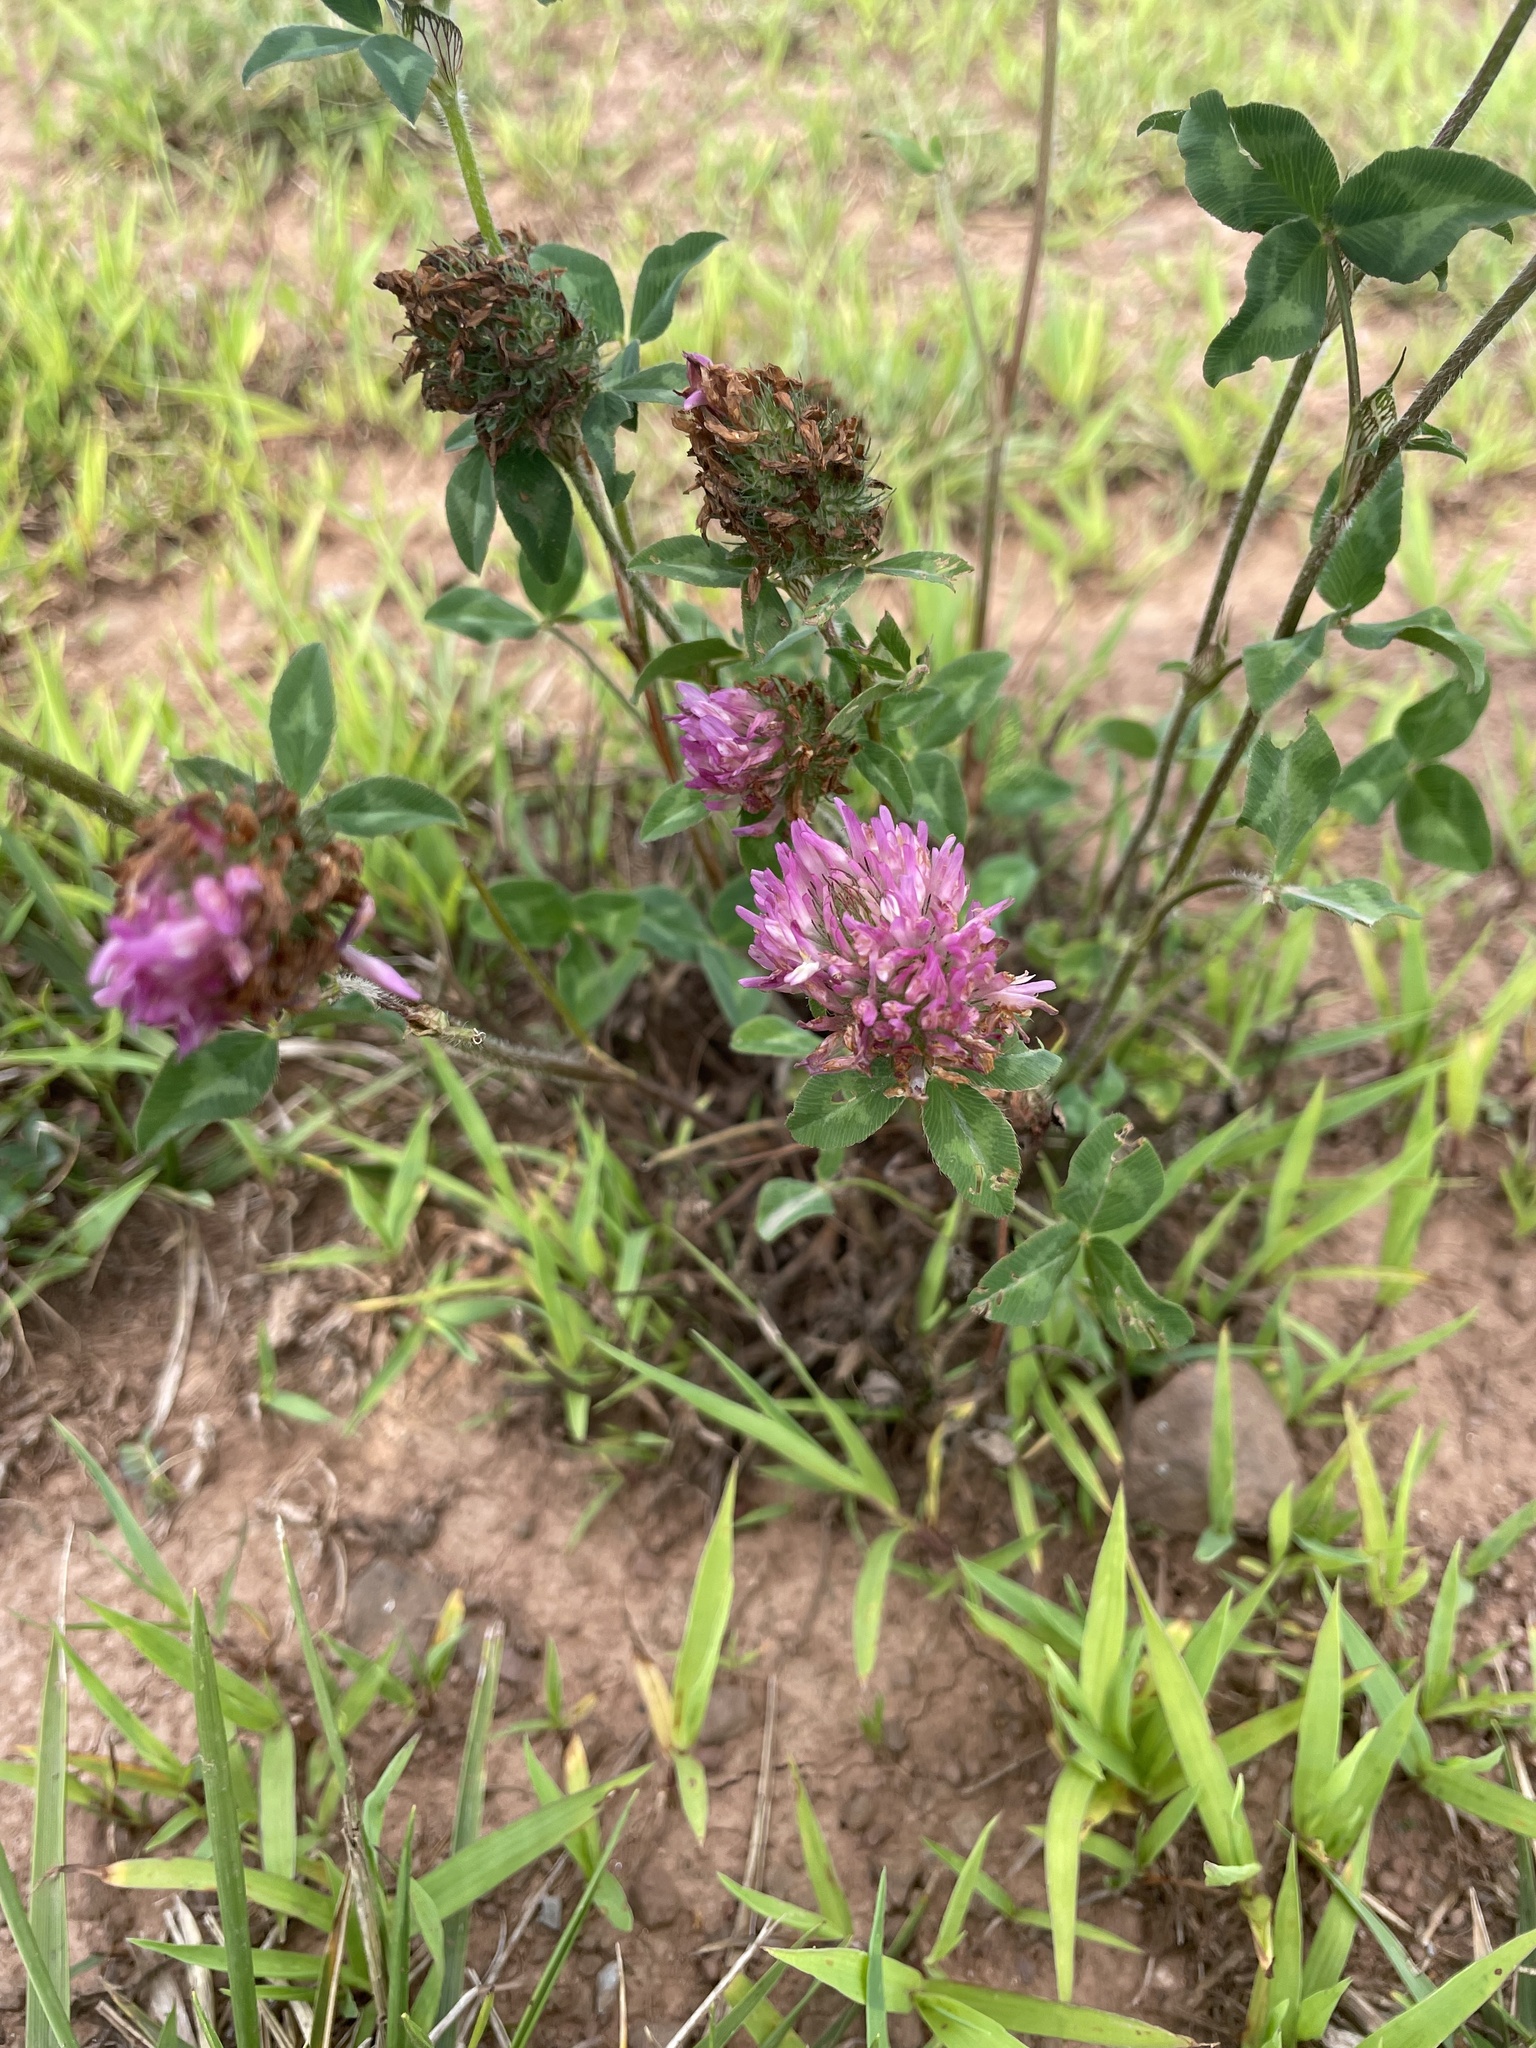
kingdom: Plantae
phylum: Tracheophyta
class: Magnoliopsida
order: Fabales
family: Fabaceae
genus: Trifolium
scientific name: Trifolium pratense
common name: Red clover
